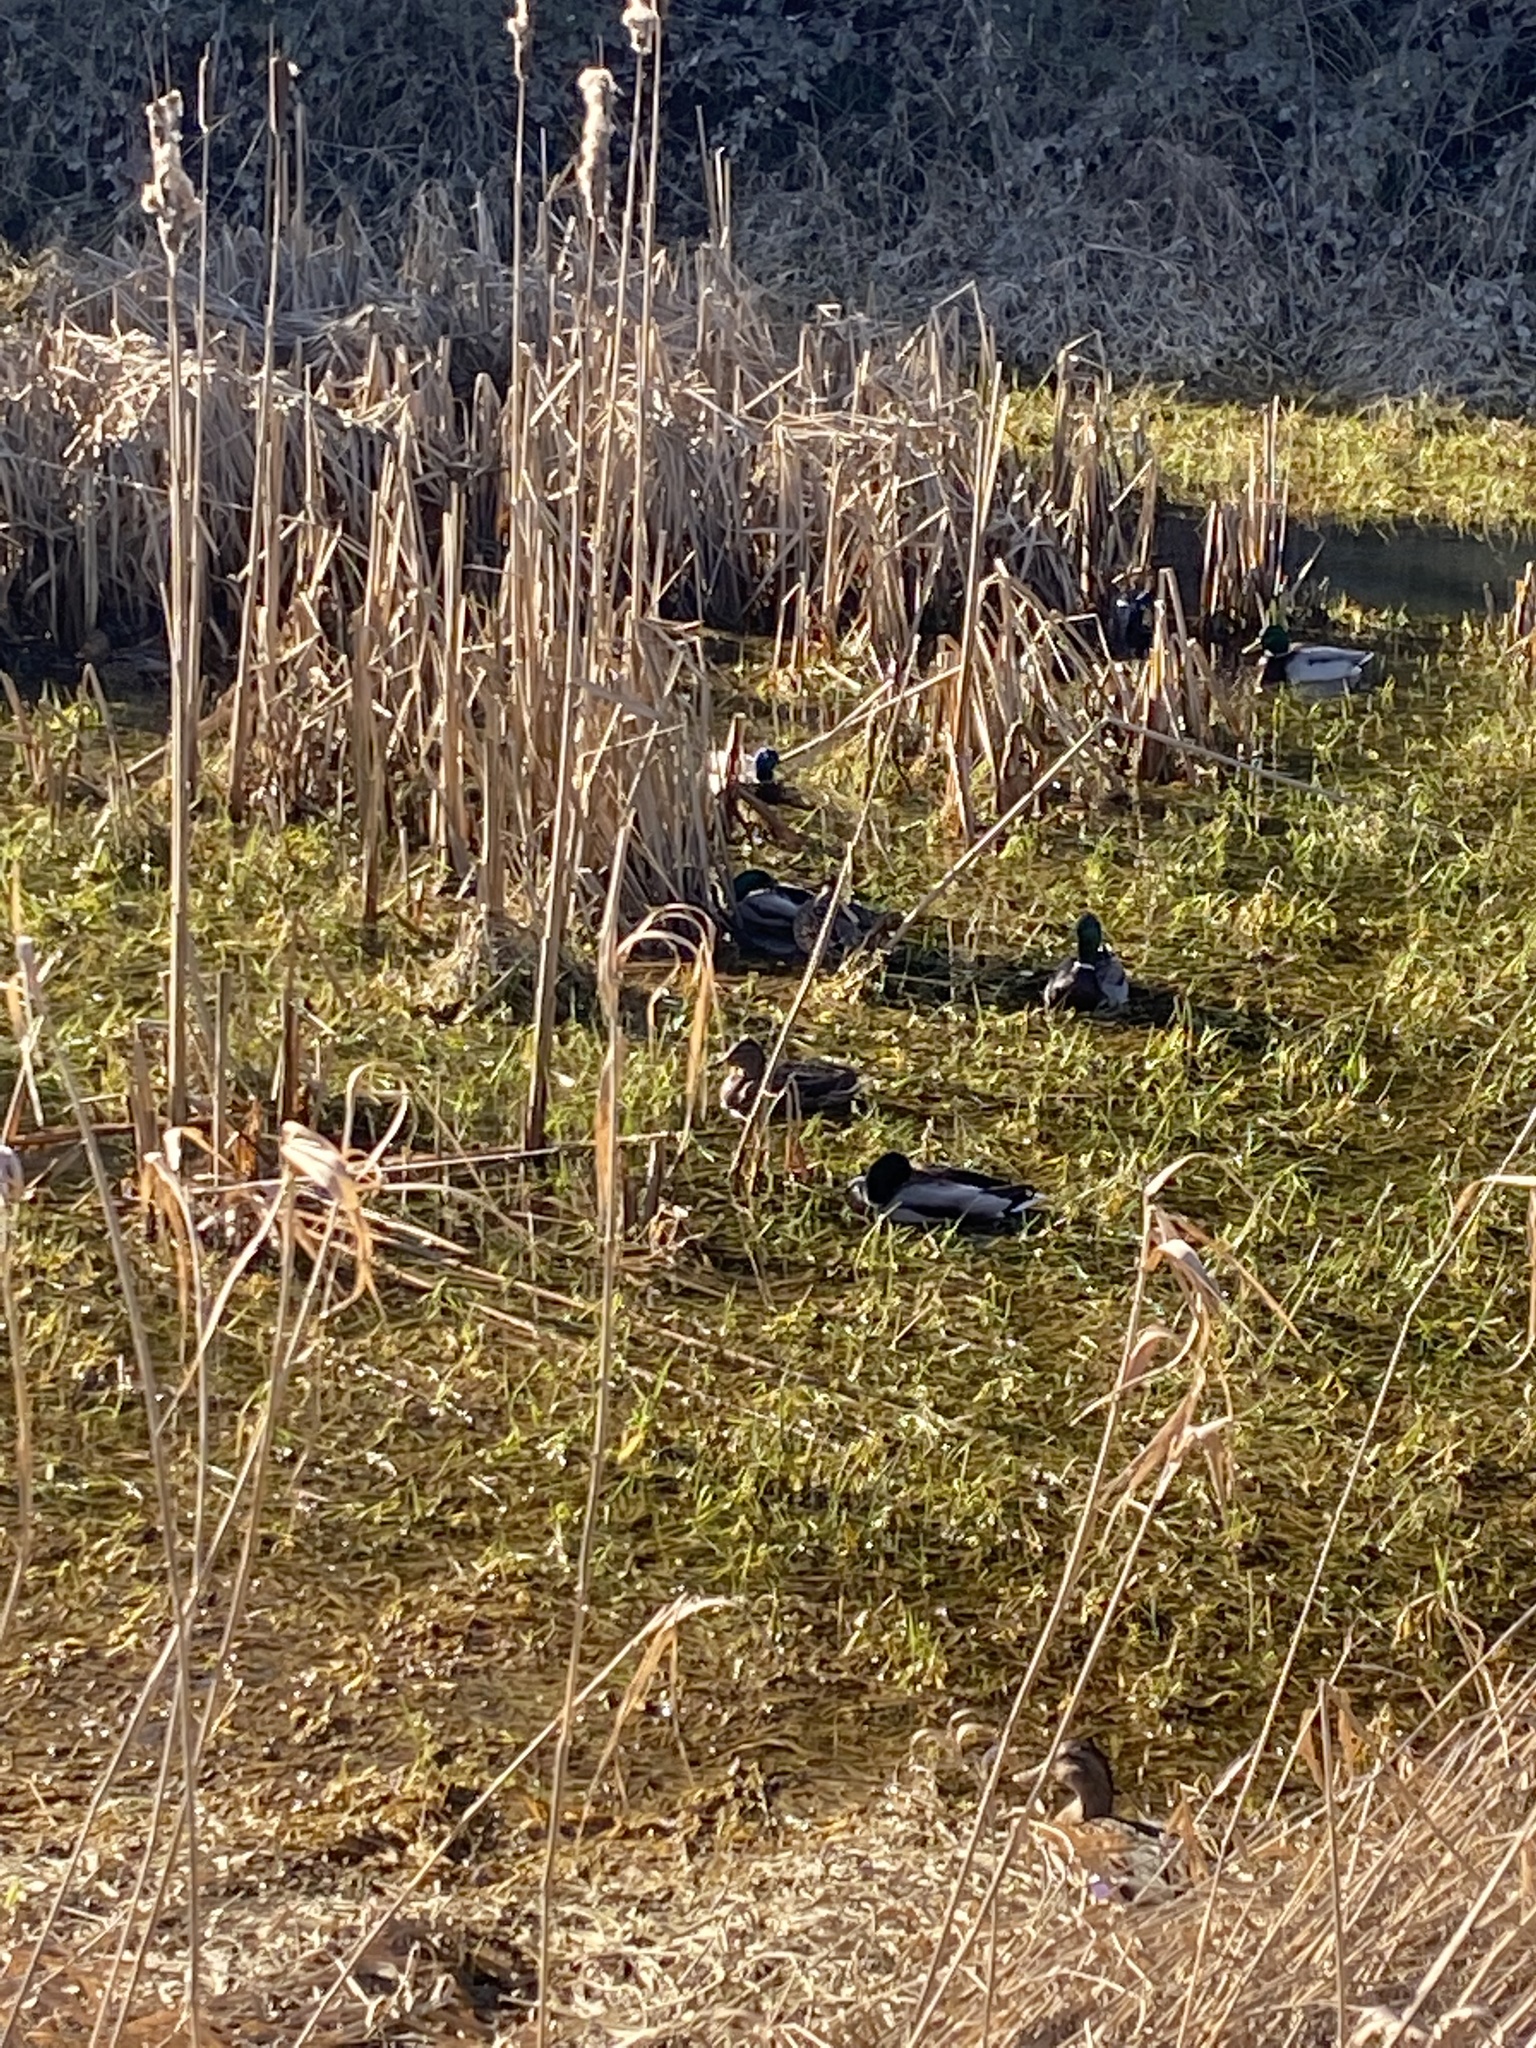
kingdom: Animalia
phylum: Chordata
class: Aves
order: Anseriformes
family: Anatidae
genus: Anas
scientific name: Anas platyrhynchos
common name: Mallard
